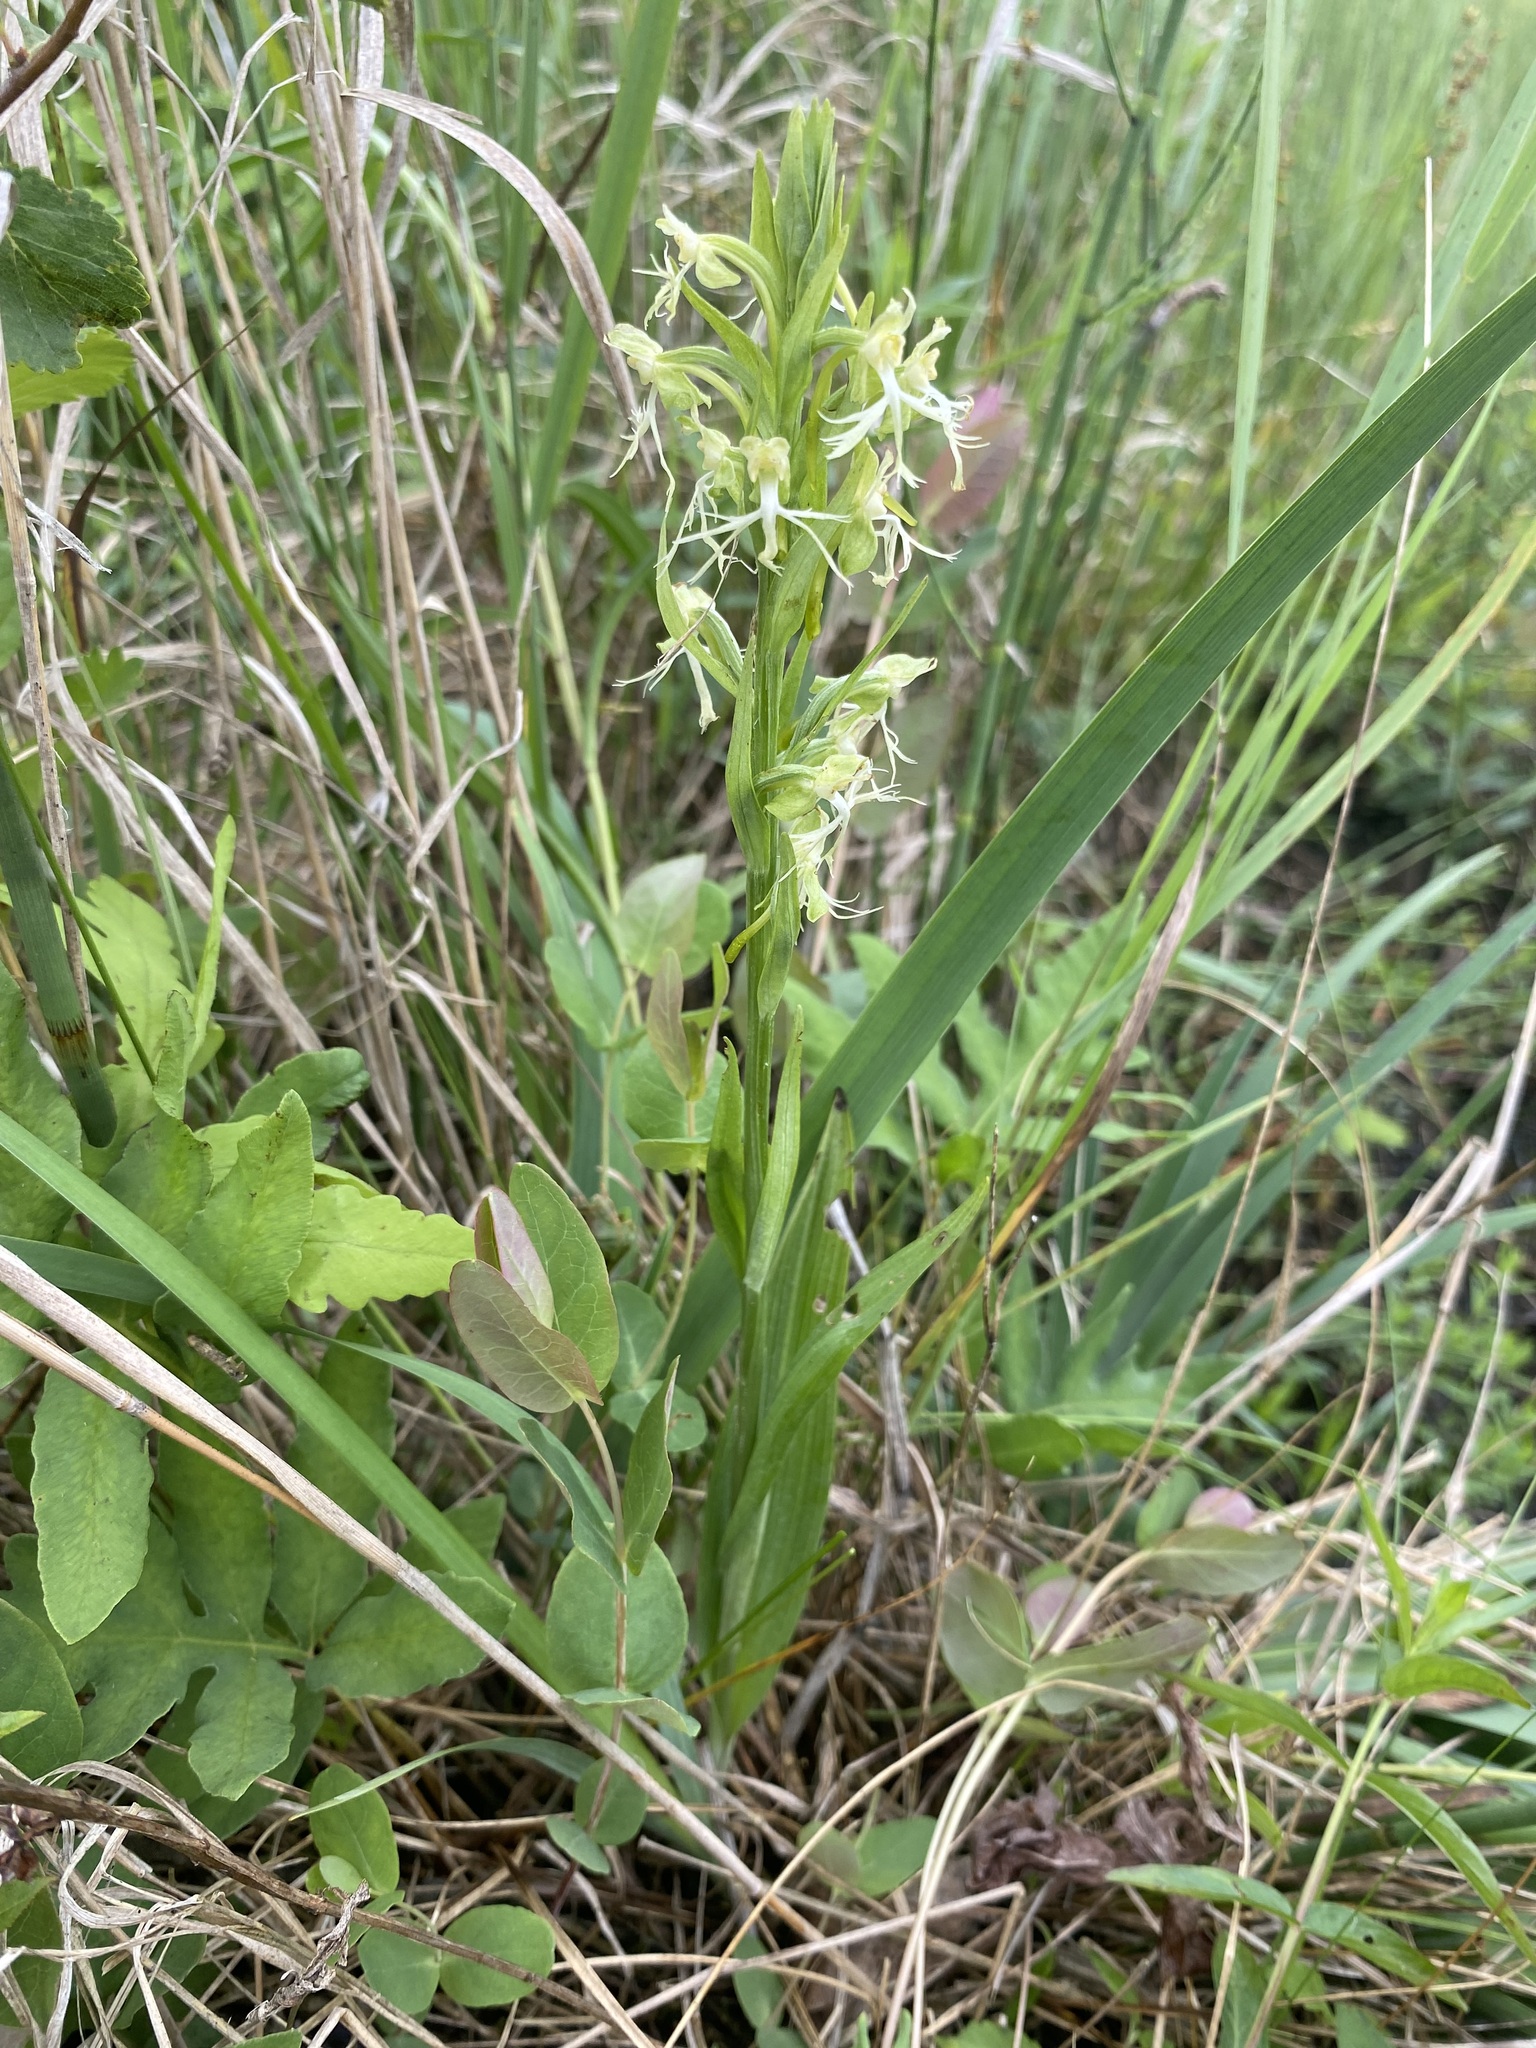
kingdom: Plantae
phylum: Tracheophyta
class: Liliopsida
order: Asparagales
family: Orchidaceae
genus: Platanthera
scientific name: Platanthera lacera
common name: Green fringed orchid
